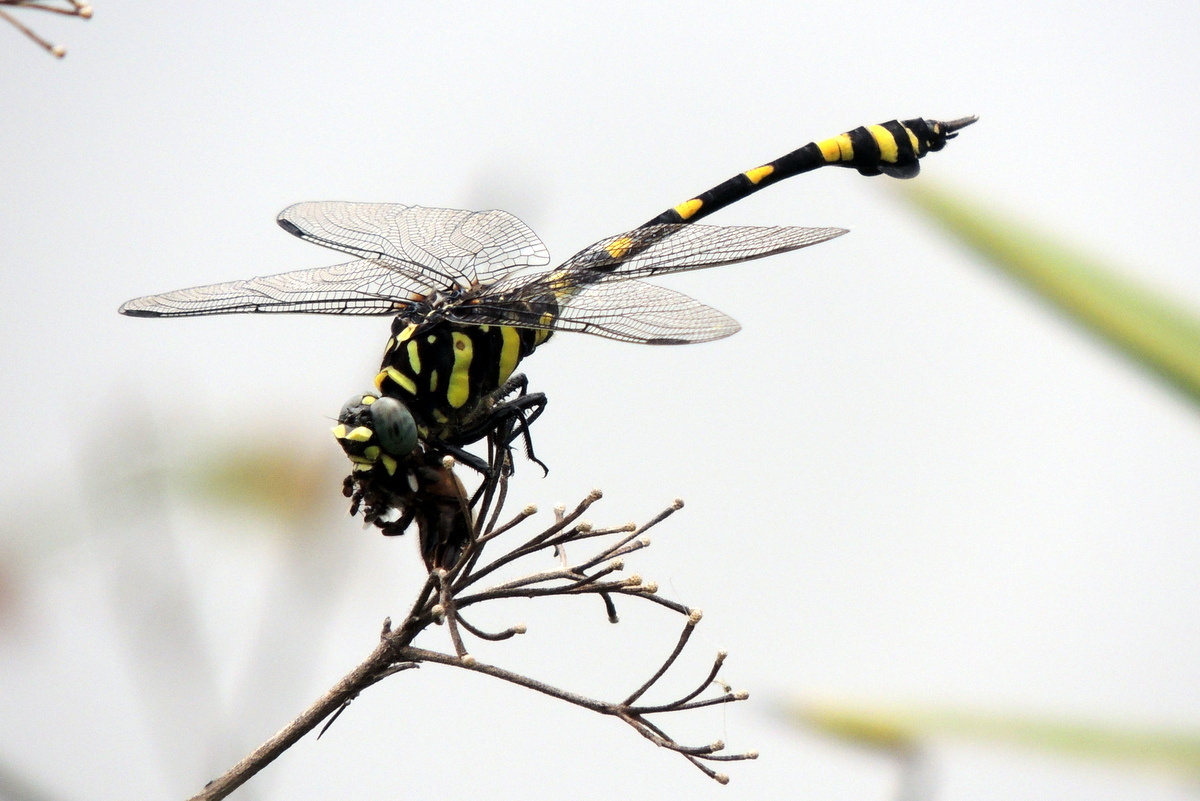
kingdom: Animalia
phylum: Arthropoda
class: Insecta
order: Odonata
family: Gomphidae
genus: Ictinogomphus
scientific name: Ictinogomphus rapax
